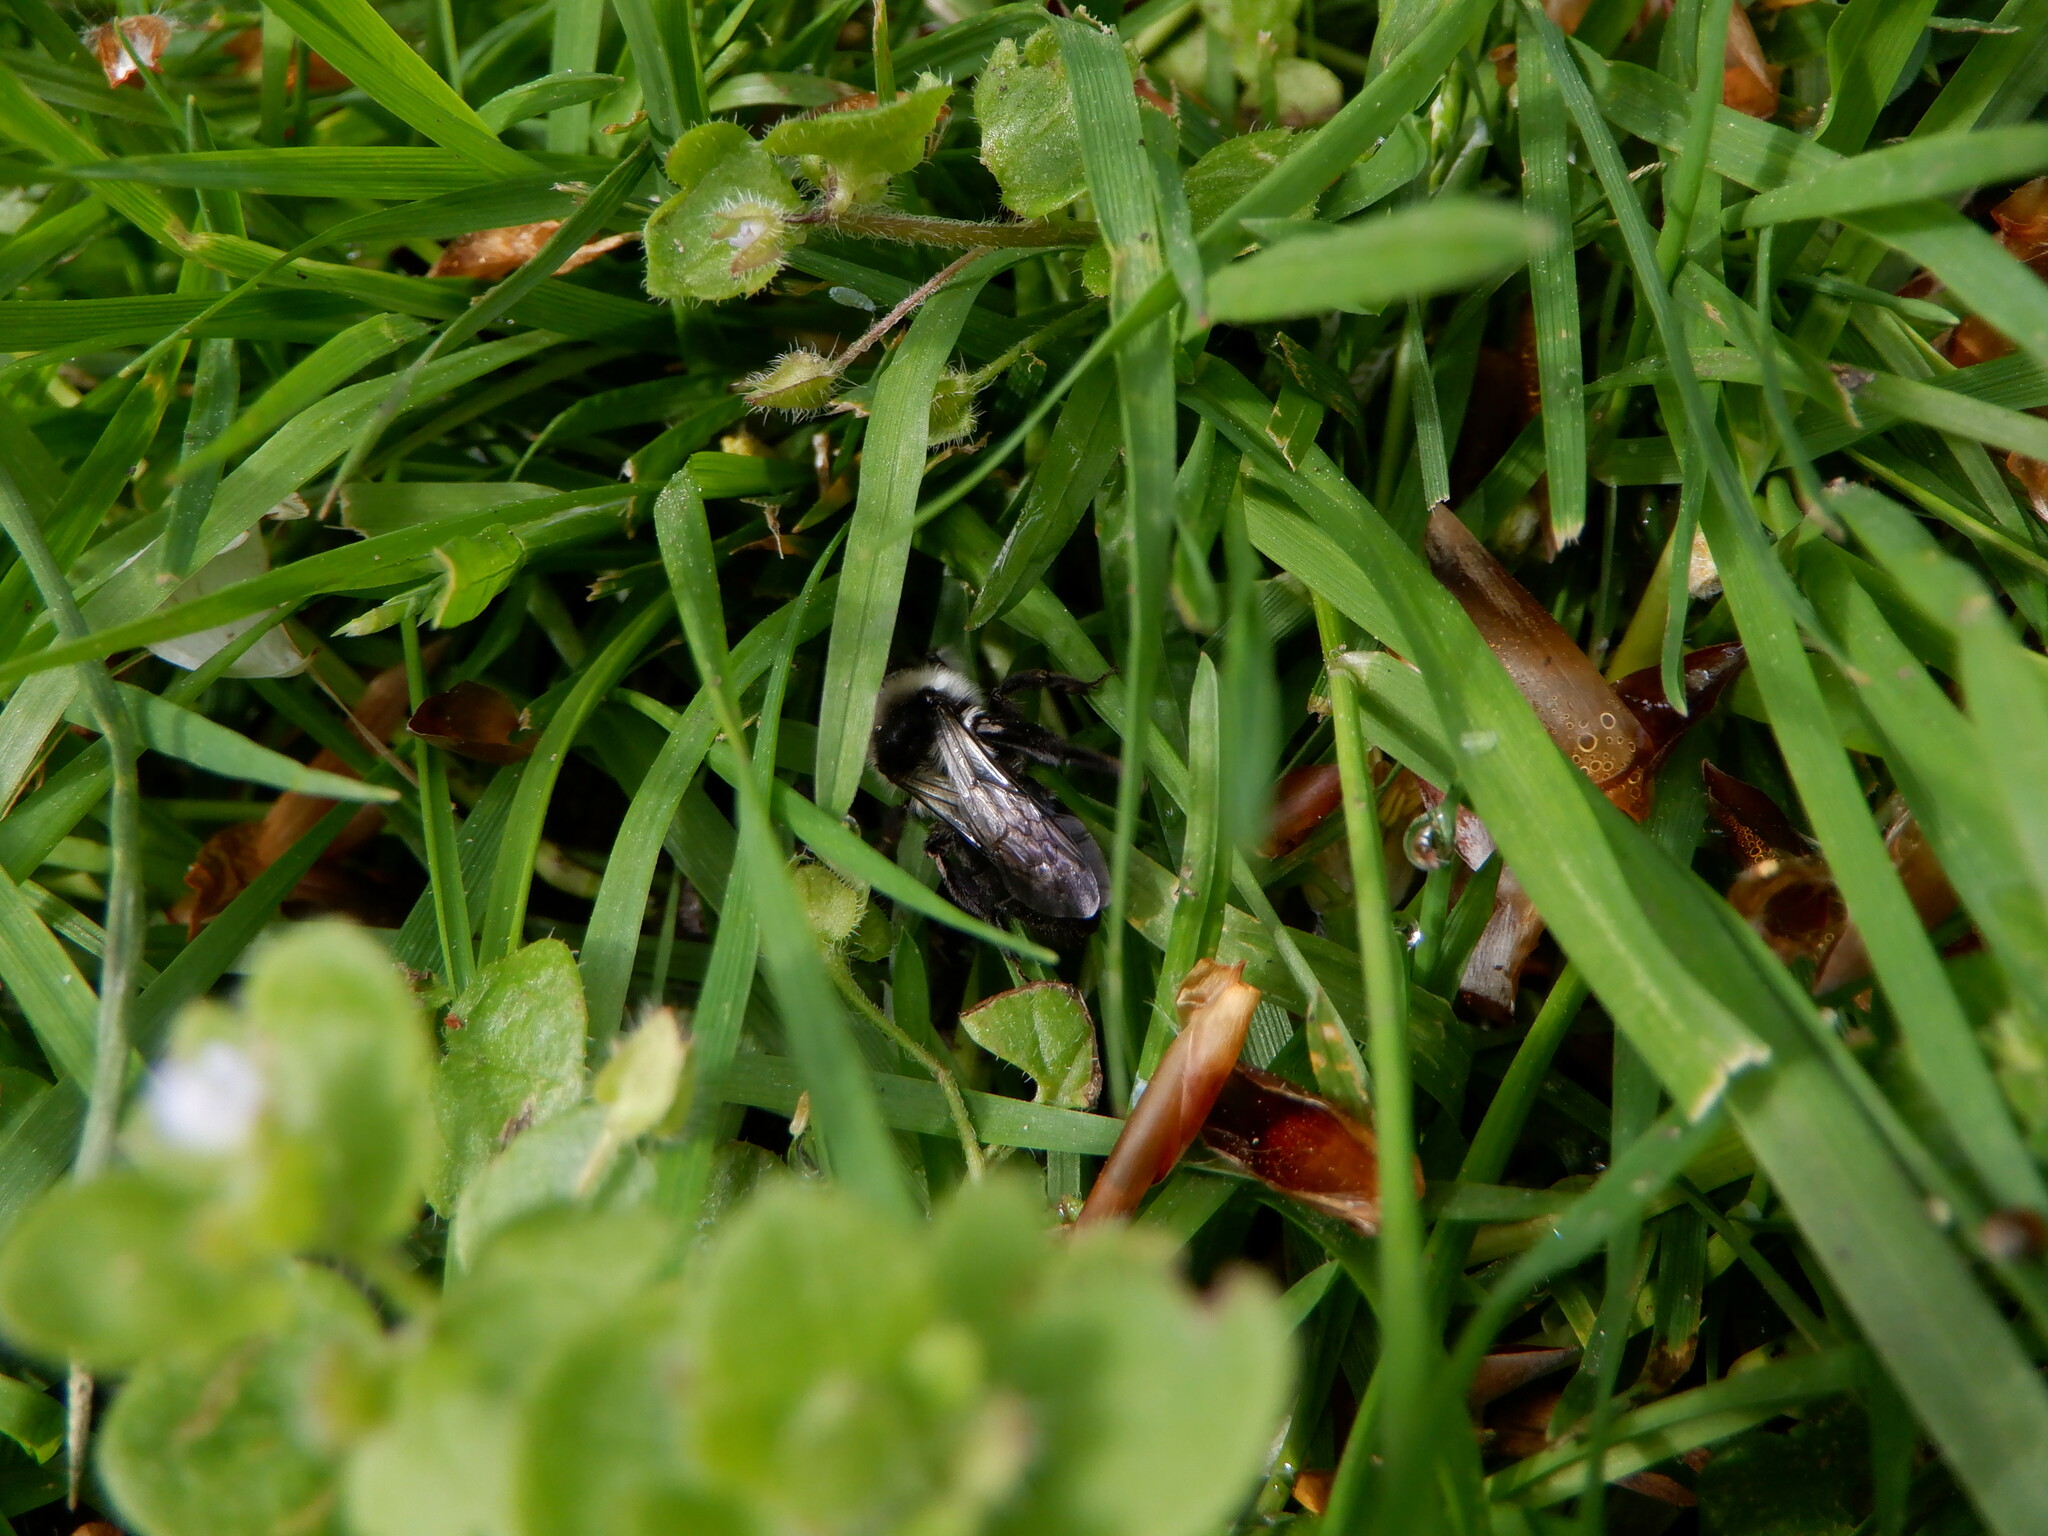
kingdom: Animalia
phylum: Arthropoda
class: Insecta
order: Hymenoptera
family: Andrenidae
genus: Andrena
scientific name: Andrena cineraria
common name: Ashy mining bee
